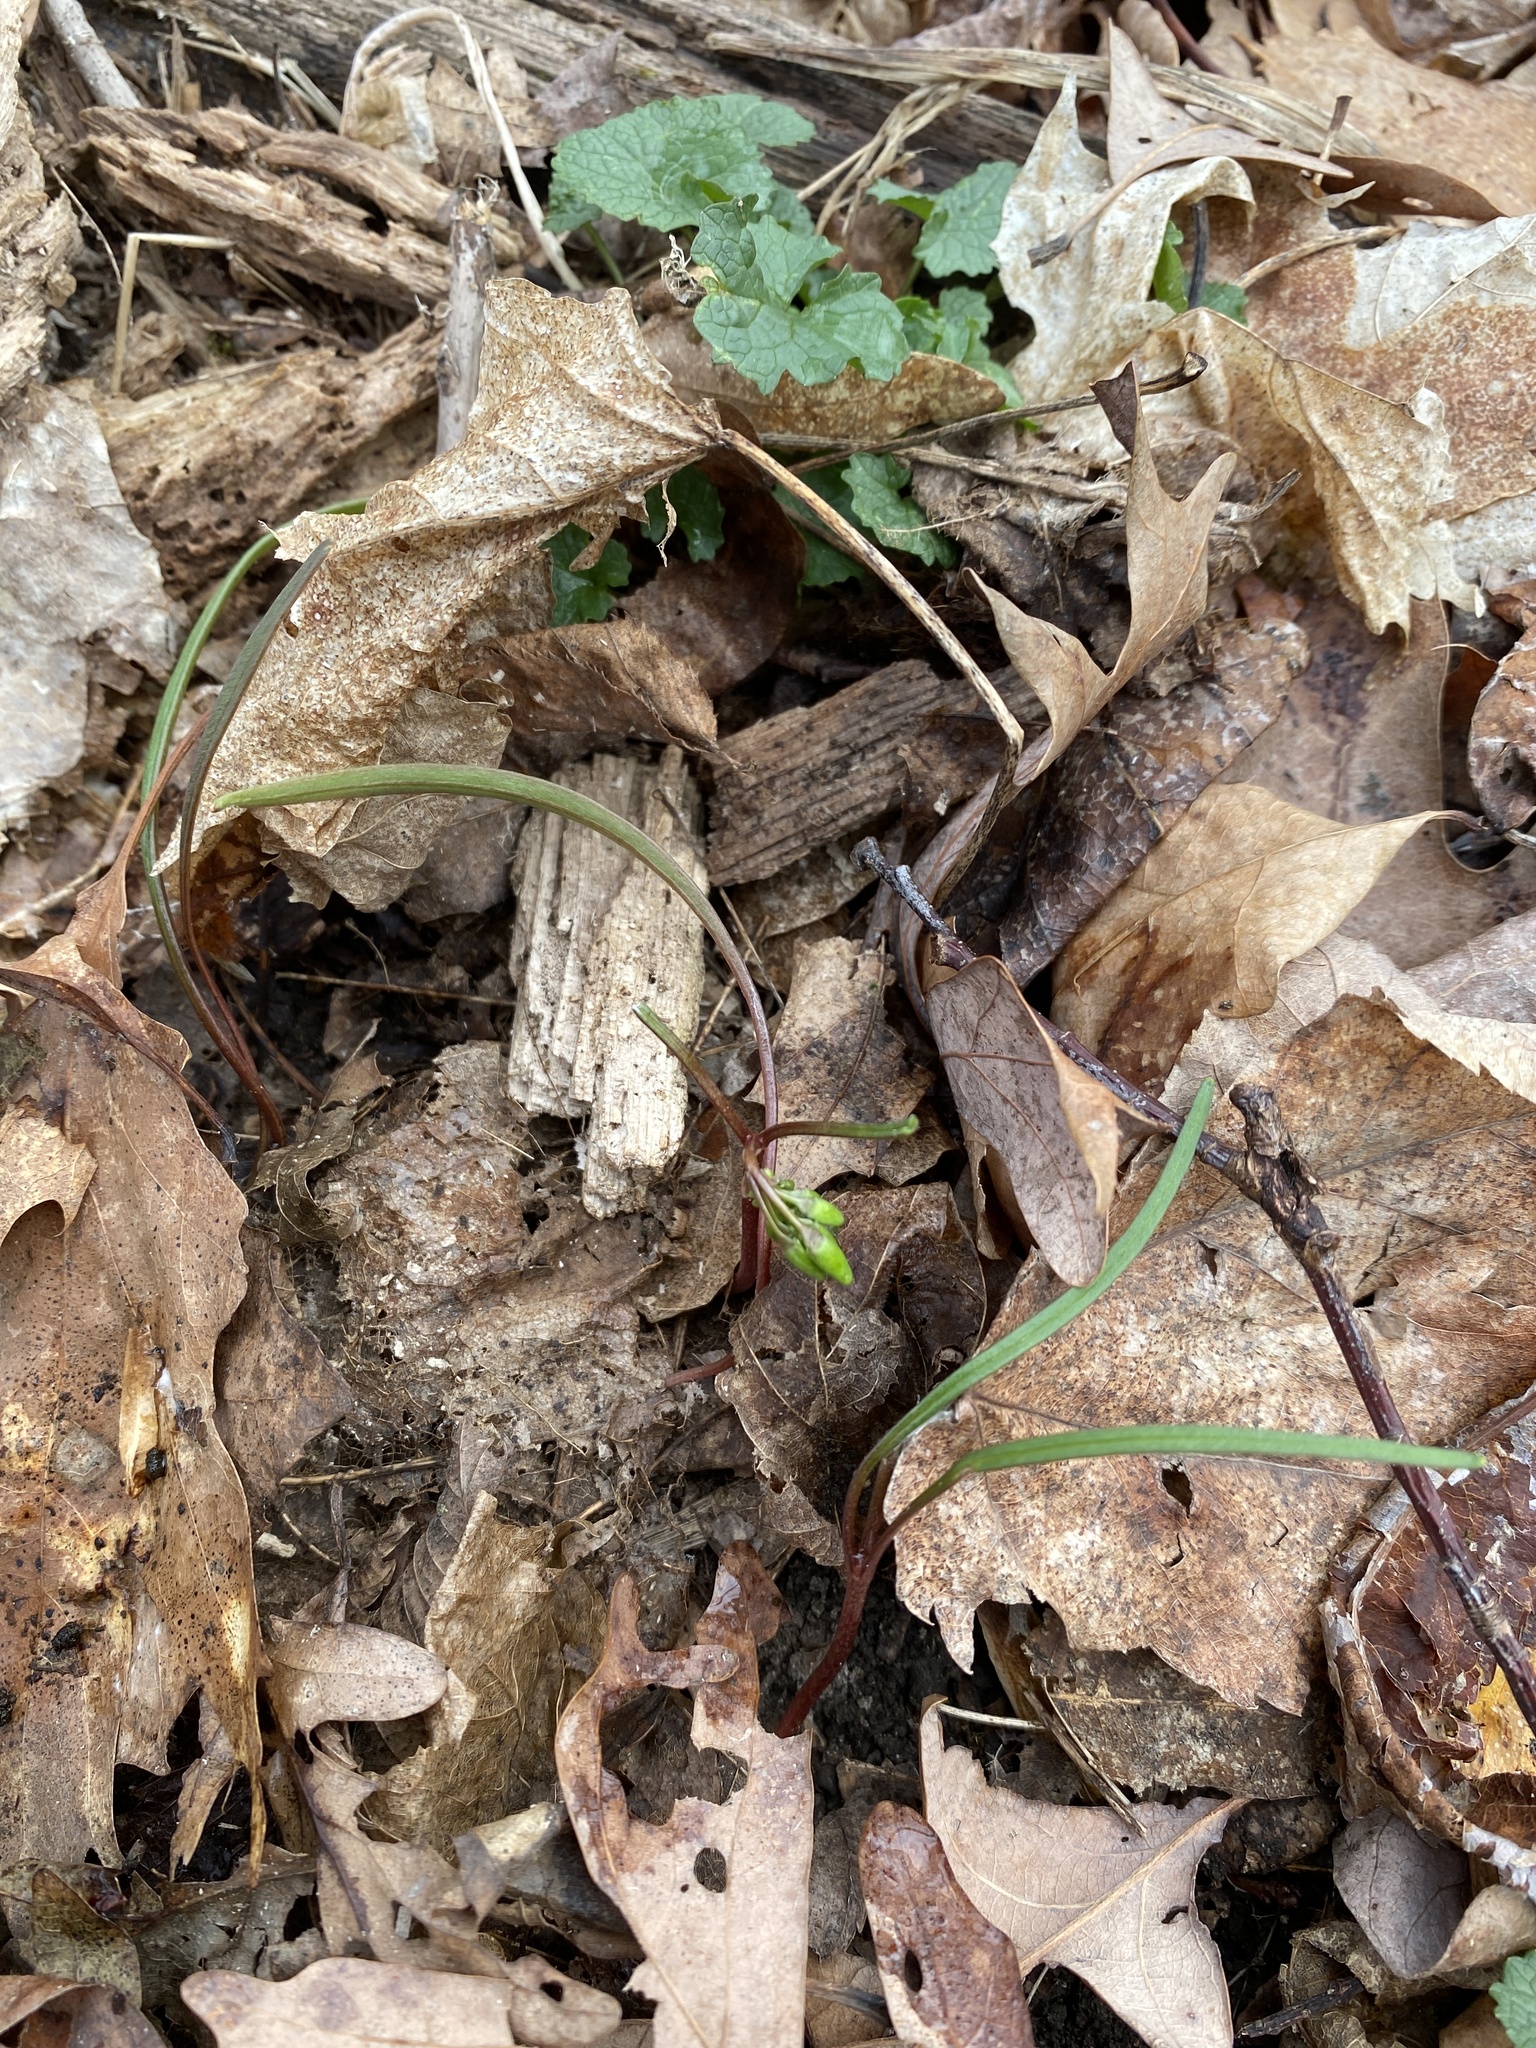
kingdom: Plantae
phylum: Tracheophyta
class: Magnoliopsida
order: Caryophyllales
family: Montiaceae
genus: Claytonia
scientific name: Claytonia virginica
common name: Virginia springbeauty
